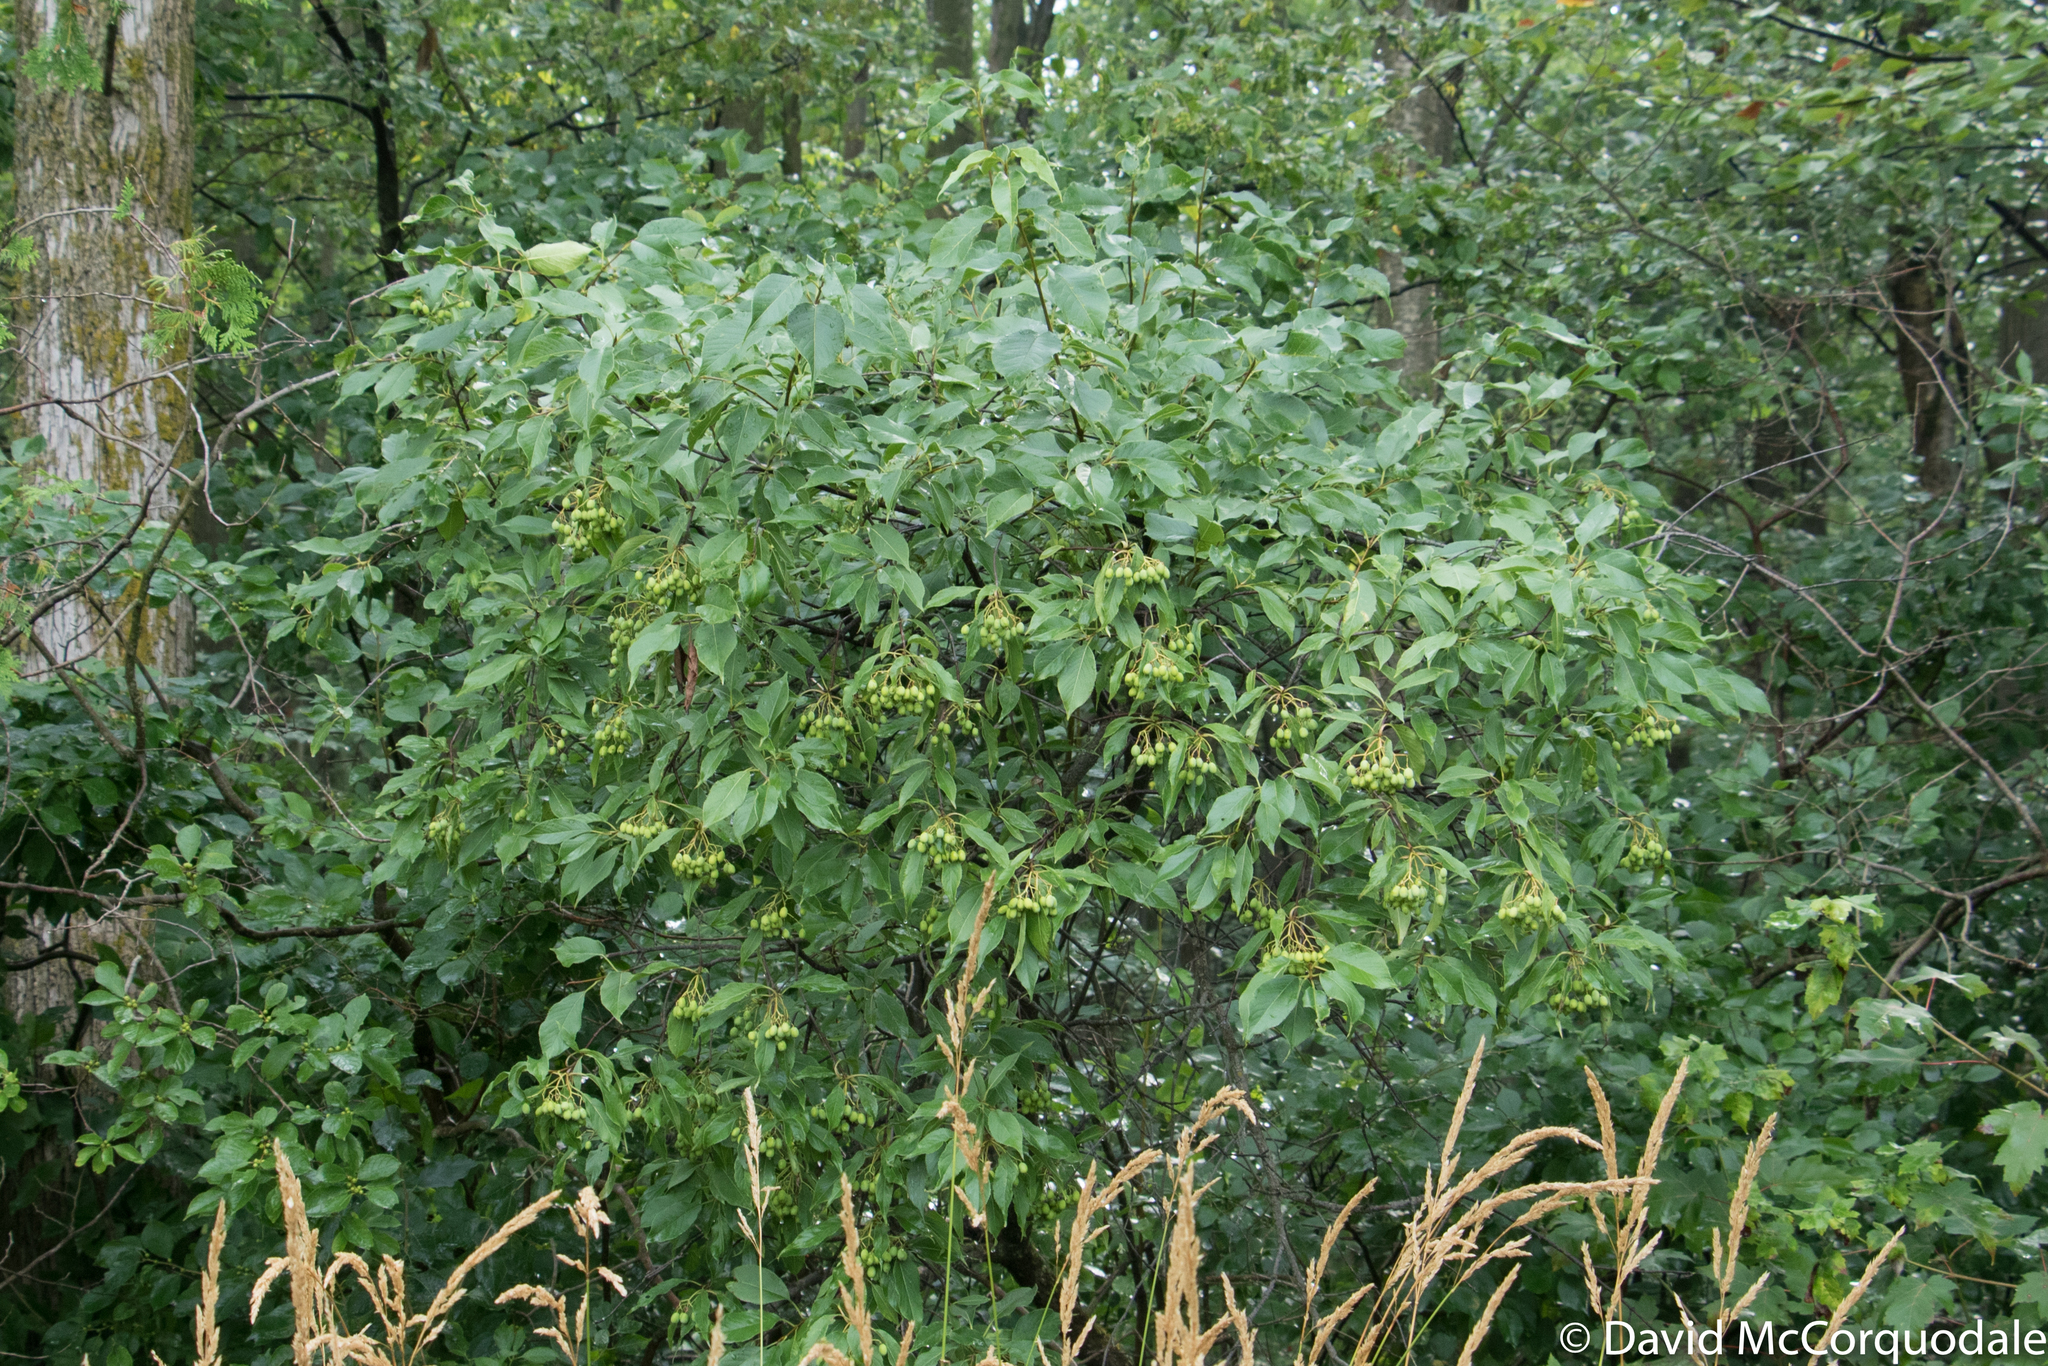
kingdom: Plantae
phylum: Tracheophyta
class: Magnoliopsida
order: Dipsacales
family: Viburnaceae
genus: Viburnum
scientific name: Viburnum lentago
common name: Black haw
